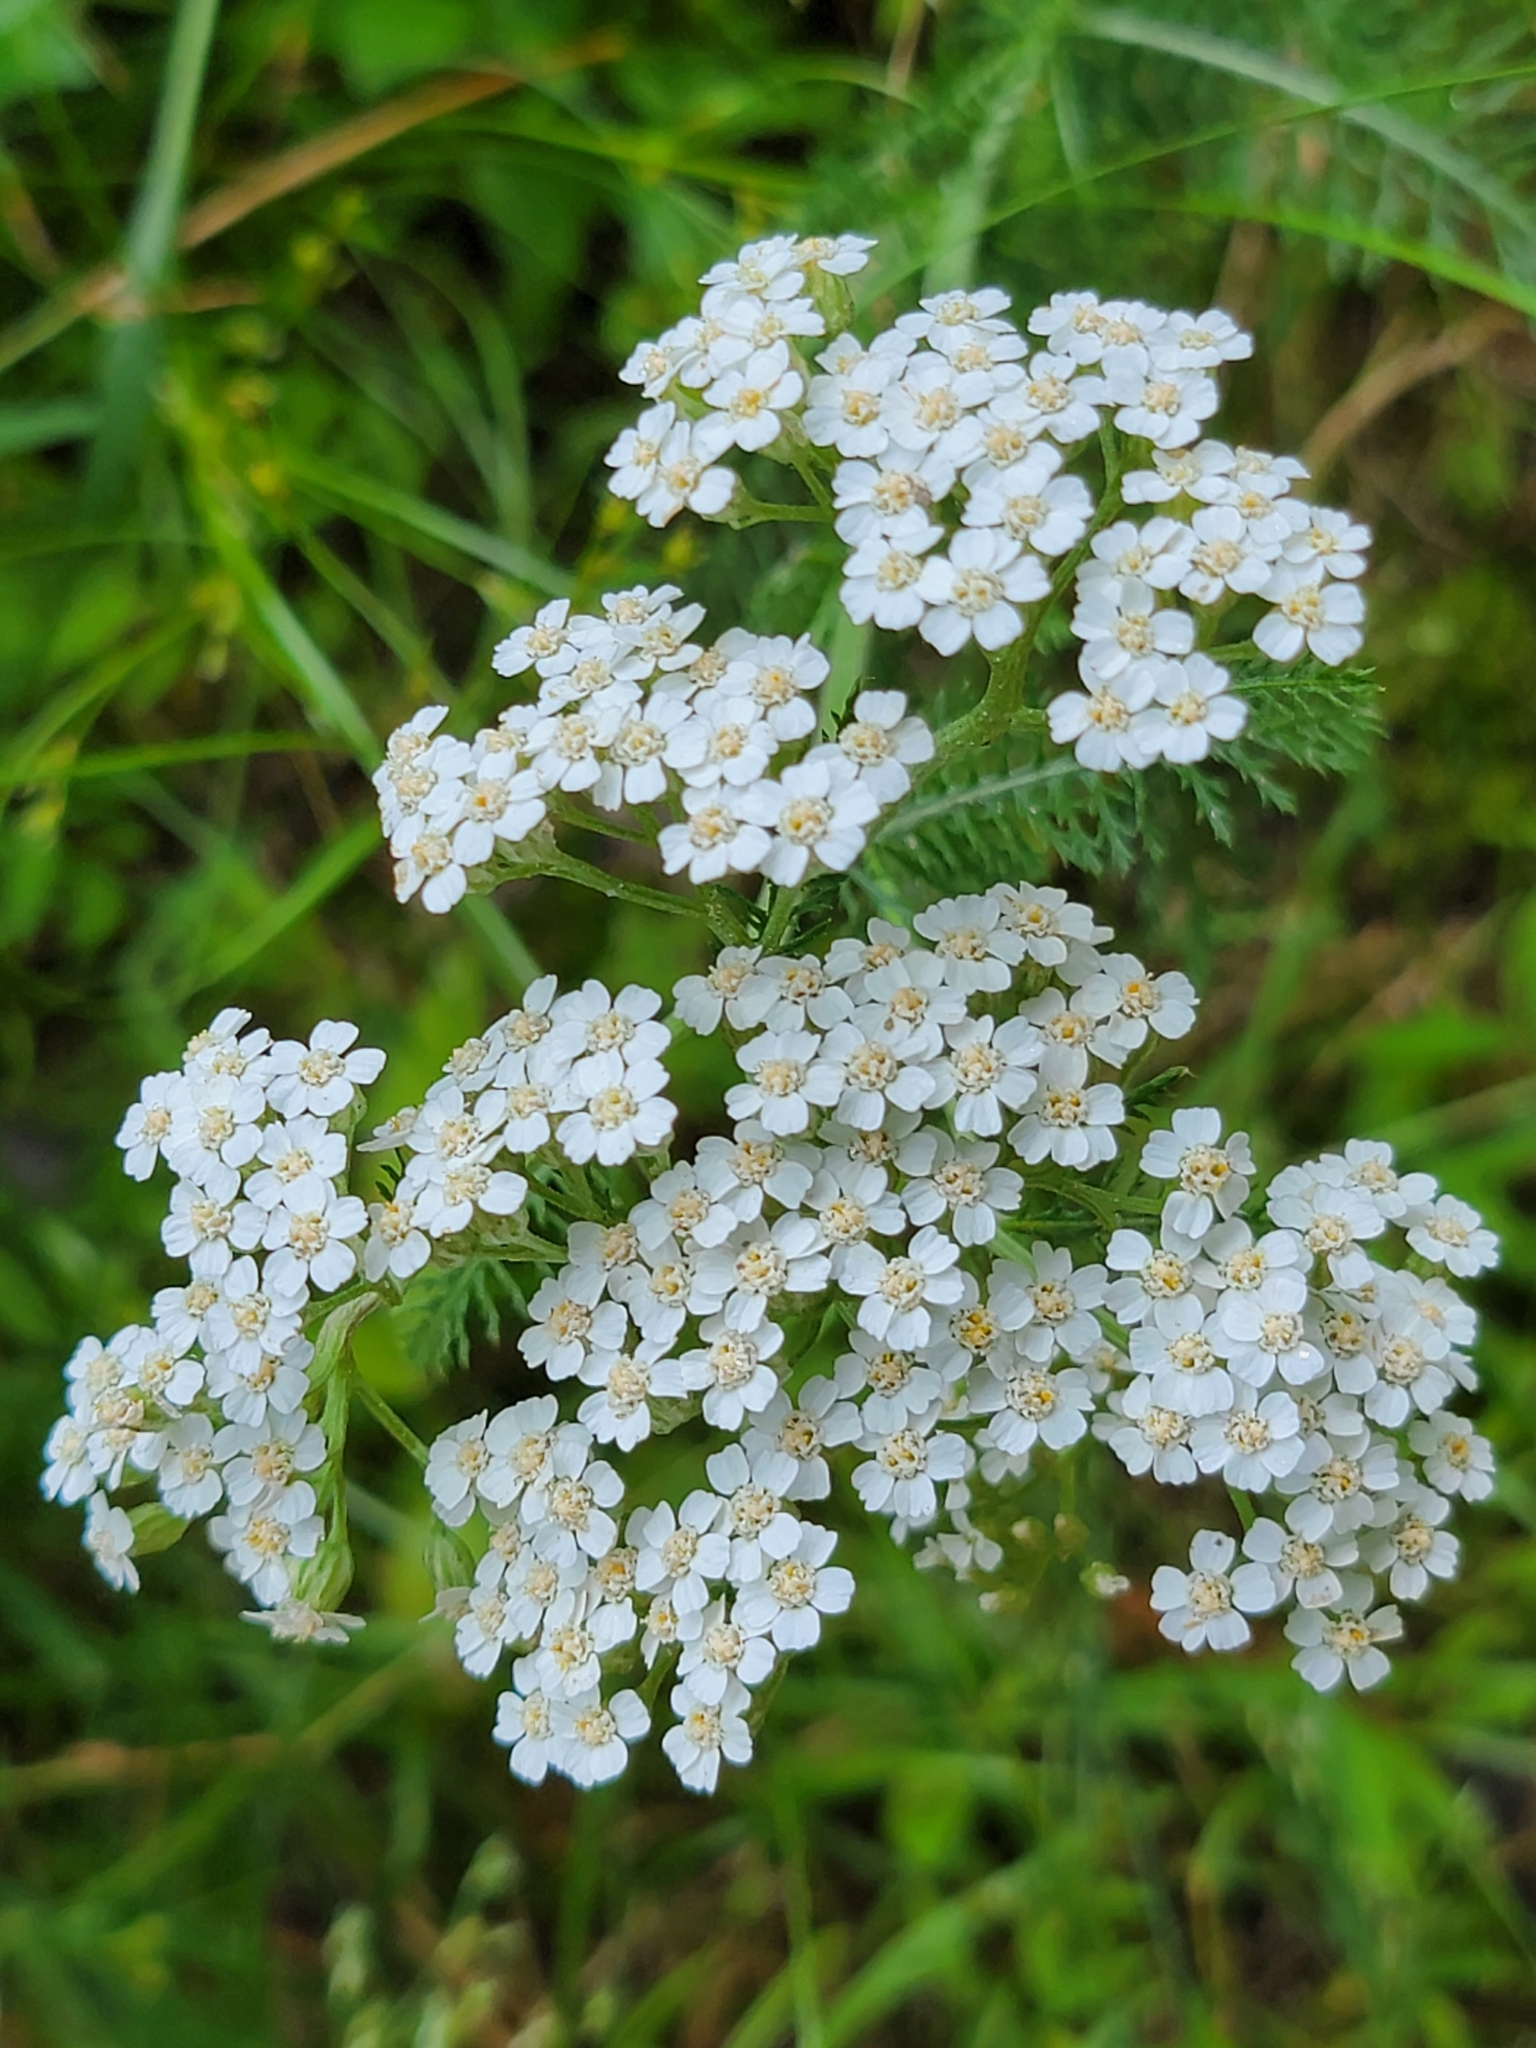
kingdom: Plantae
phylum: Tracheophyta
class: Magnoliopsida
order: Asterales
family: Asteraceae
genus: Achillea
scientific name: Achillea millefolium
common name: Yarrow
